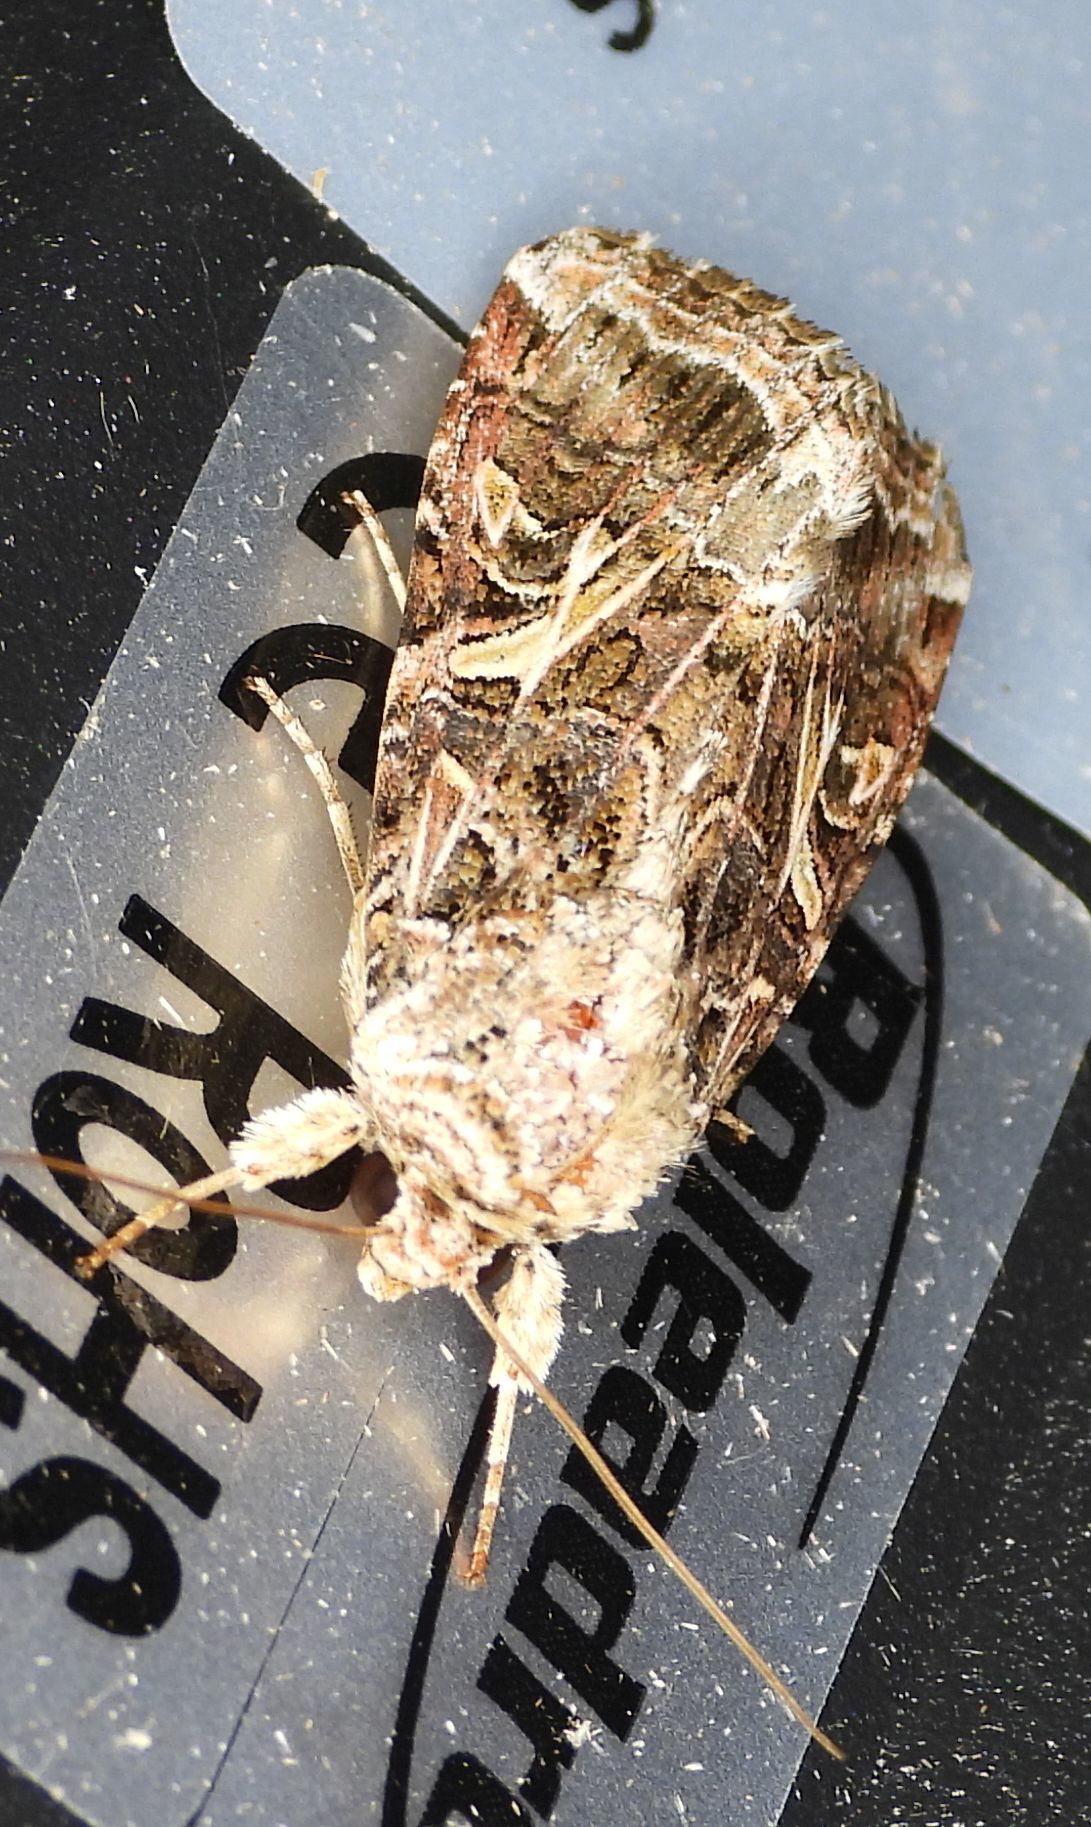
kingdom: Animalia
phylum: Arthropoda
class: Insecta
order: Lepidoptera
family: Noctuidae
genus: Spodoptera
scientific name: Spodoptera ornithogalli
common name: Yellow-striped armyworm
